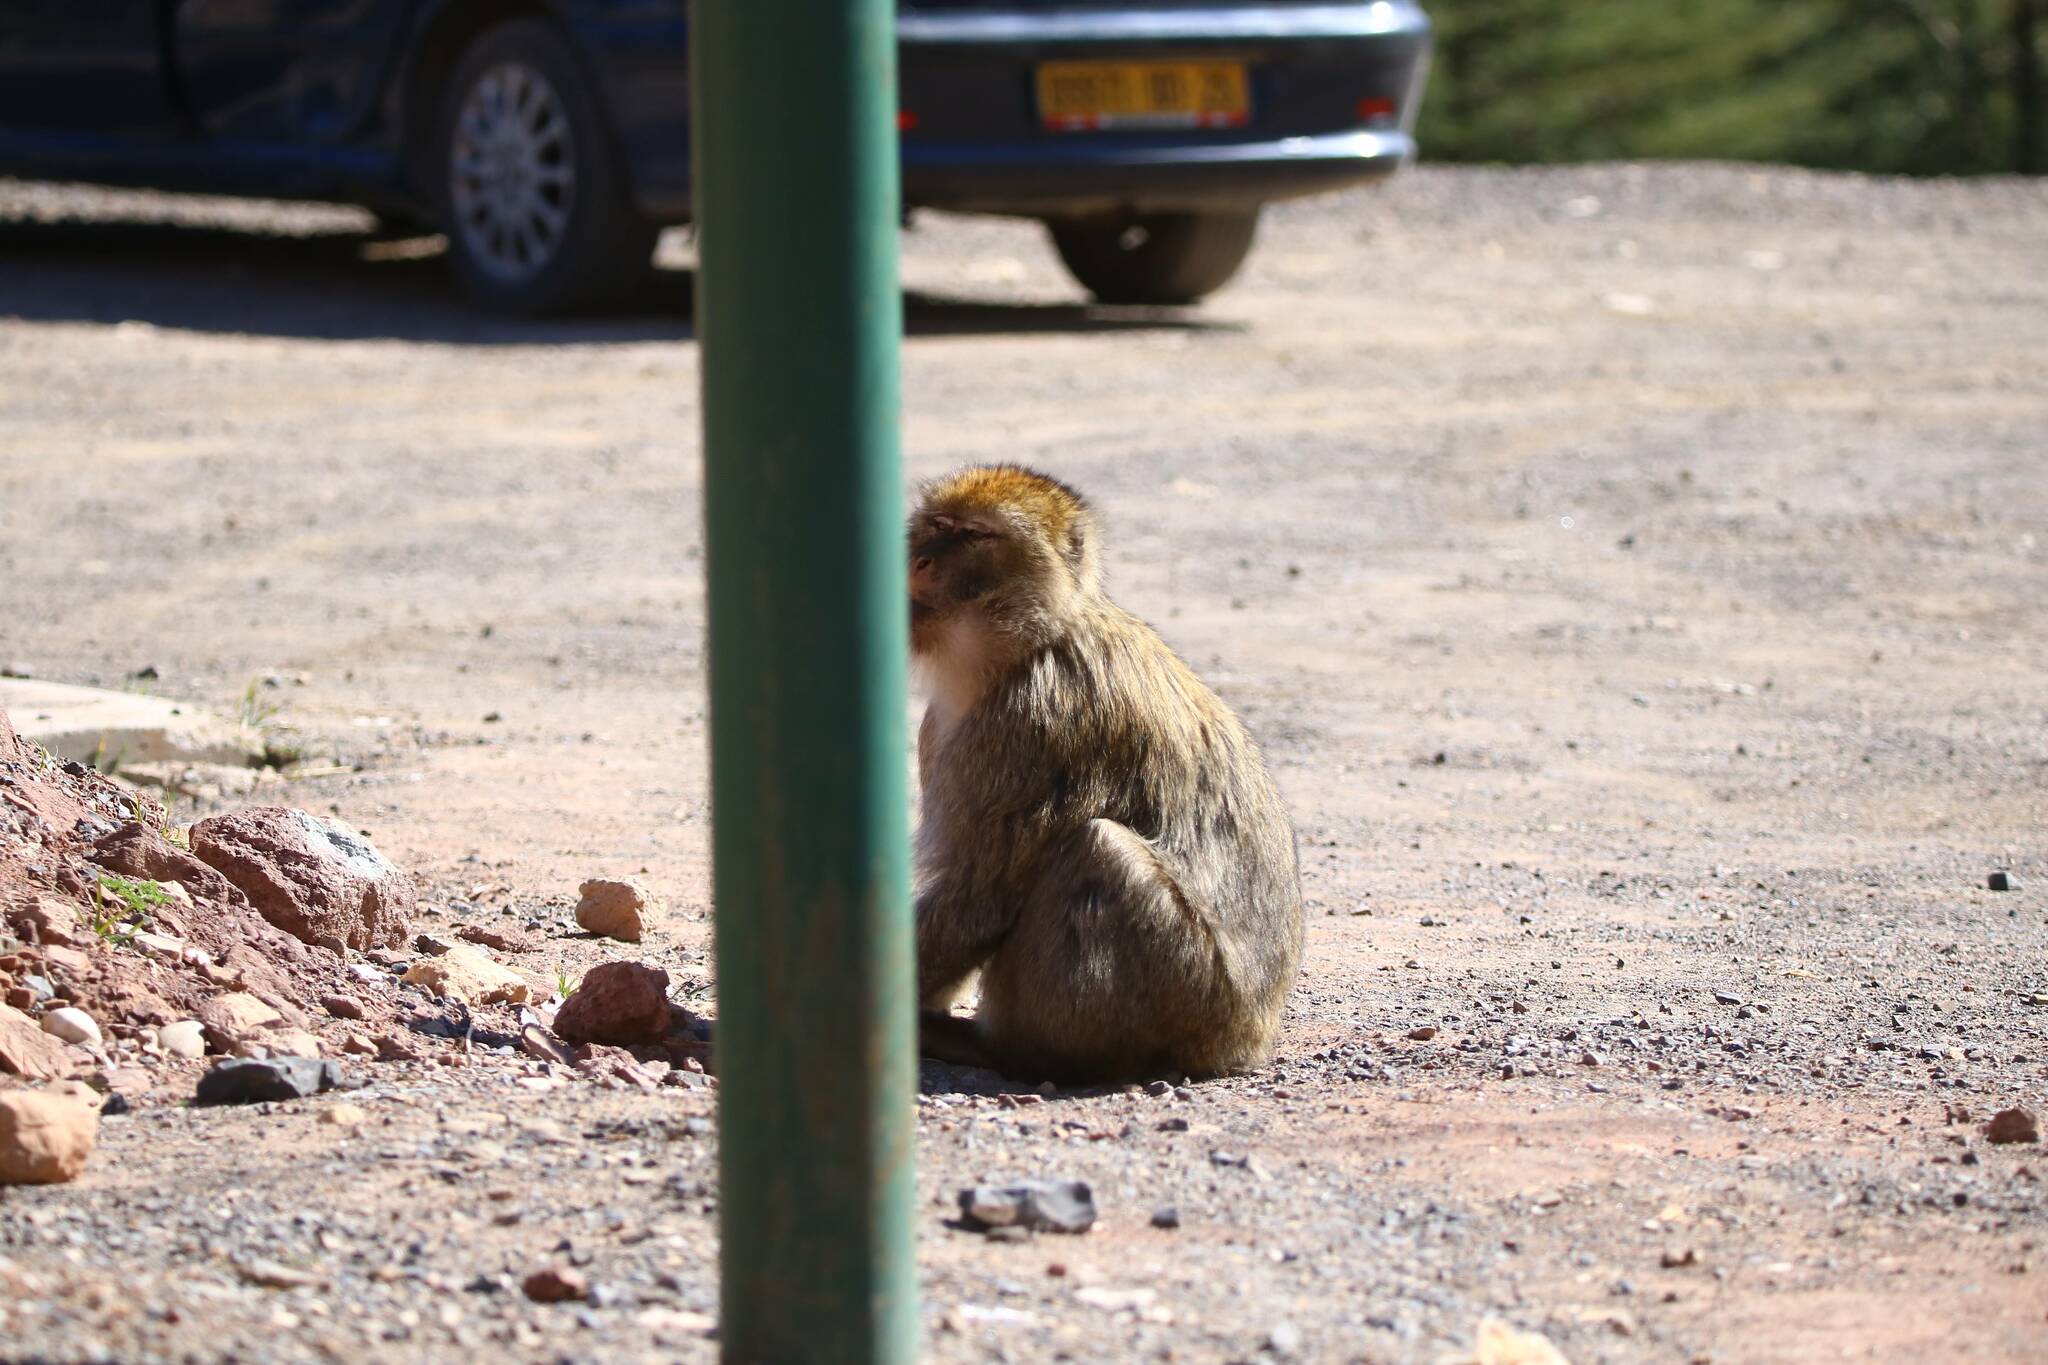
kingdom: Animalia
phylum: Chordata
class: Mammalia
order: Primates
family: Cercopithecidae
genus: Macaca
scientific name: Macaca sylvanus
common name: Barbary macaque
